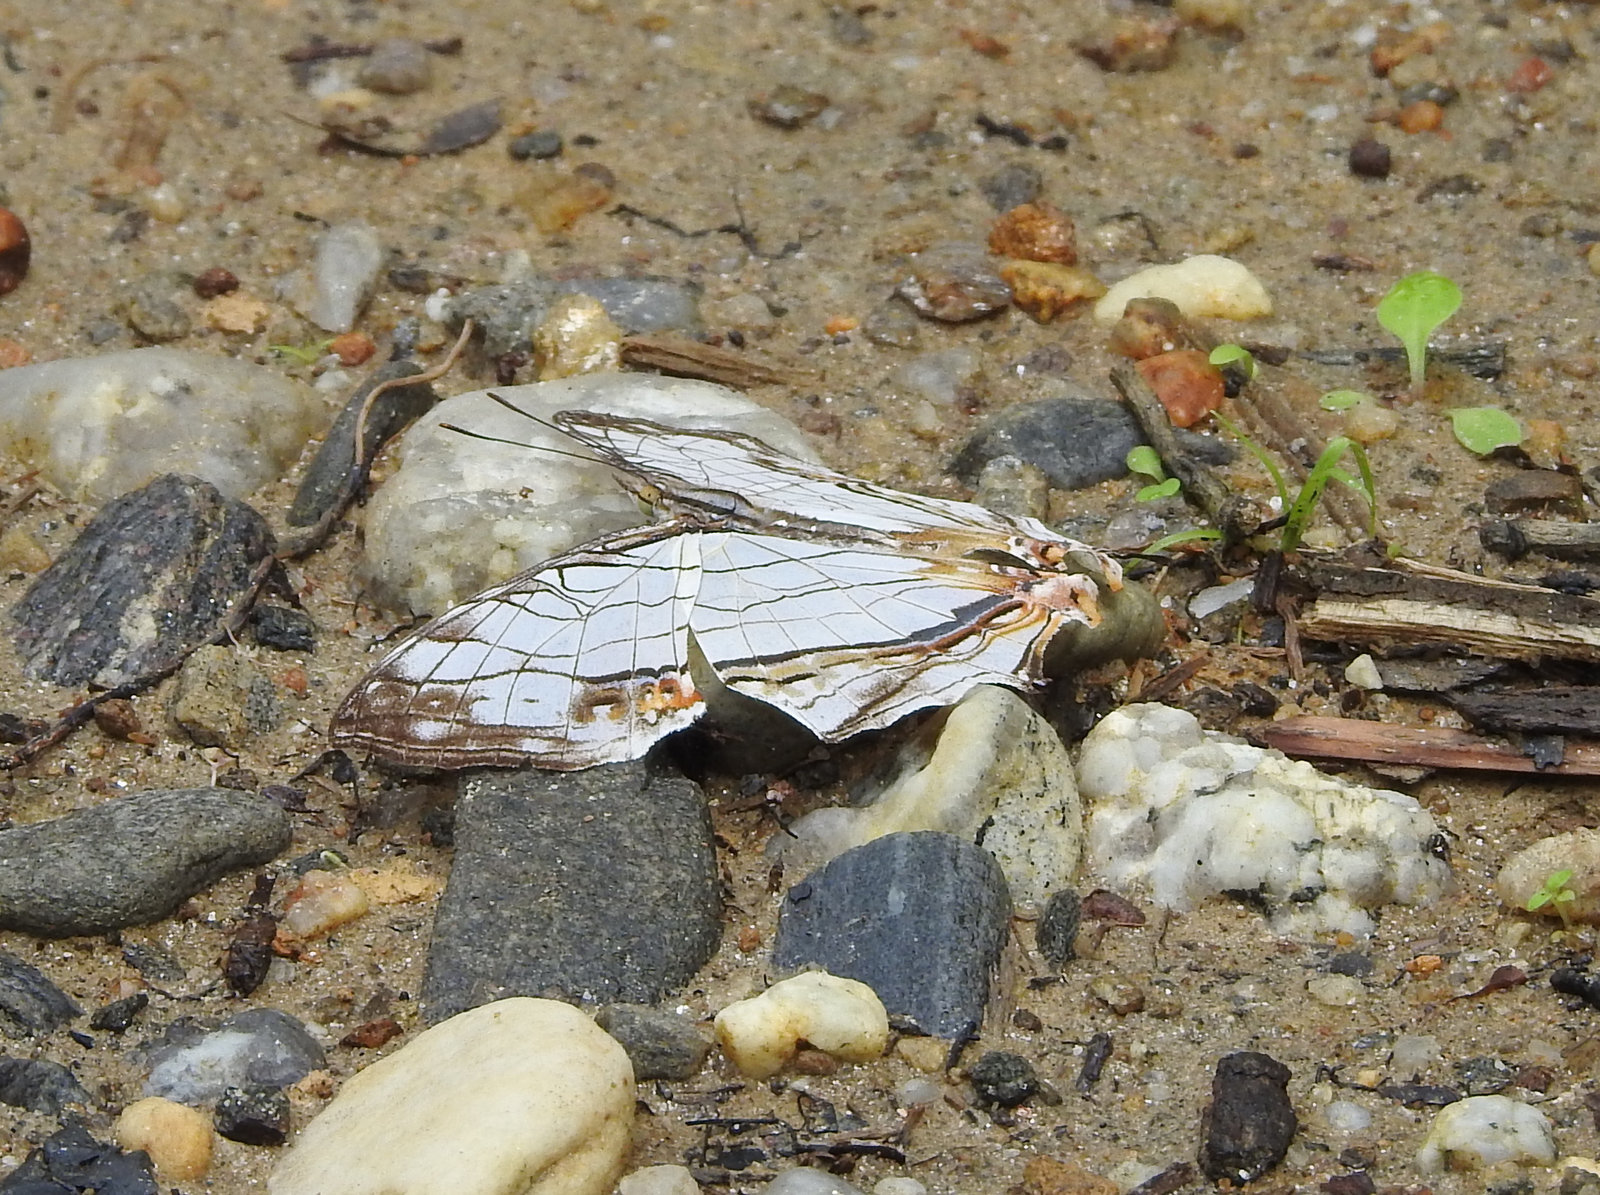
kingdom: Animalia
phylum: Arthropoda
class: Insecta
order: Lepidoptera
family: Nymphalidae
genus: Cyrestis
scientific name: Cyrestis thyodamas
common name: Common mapwing
